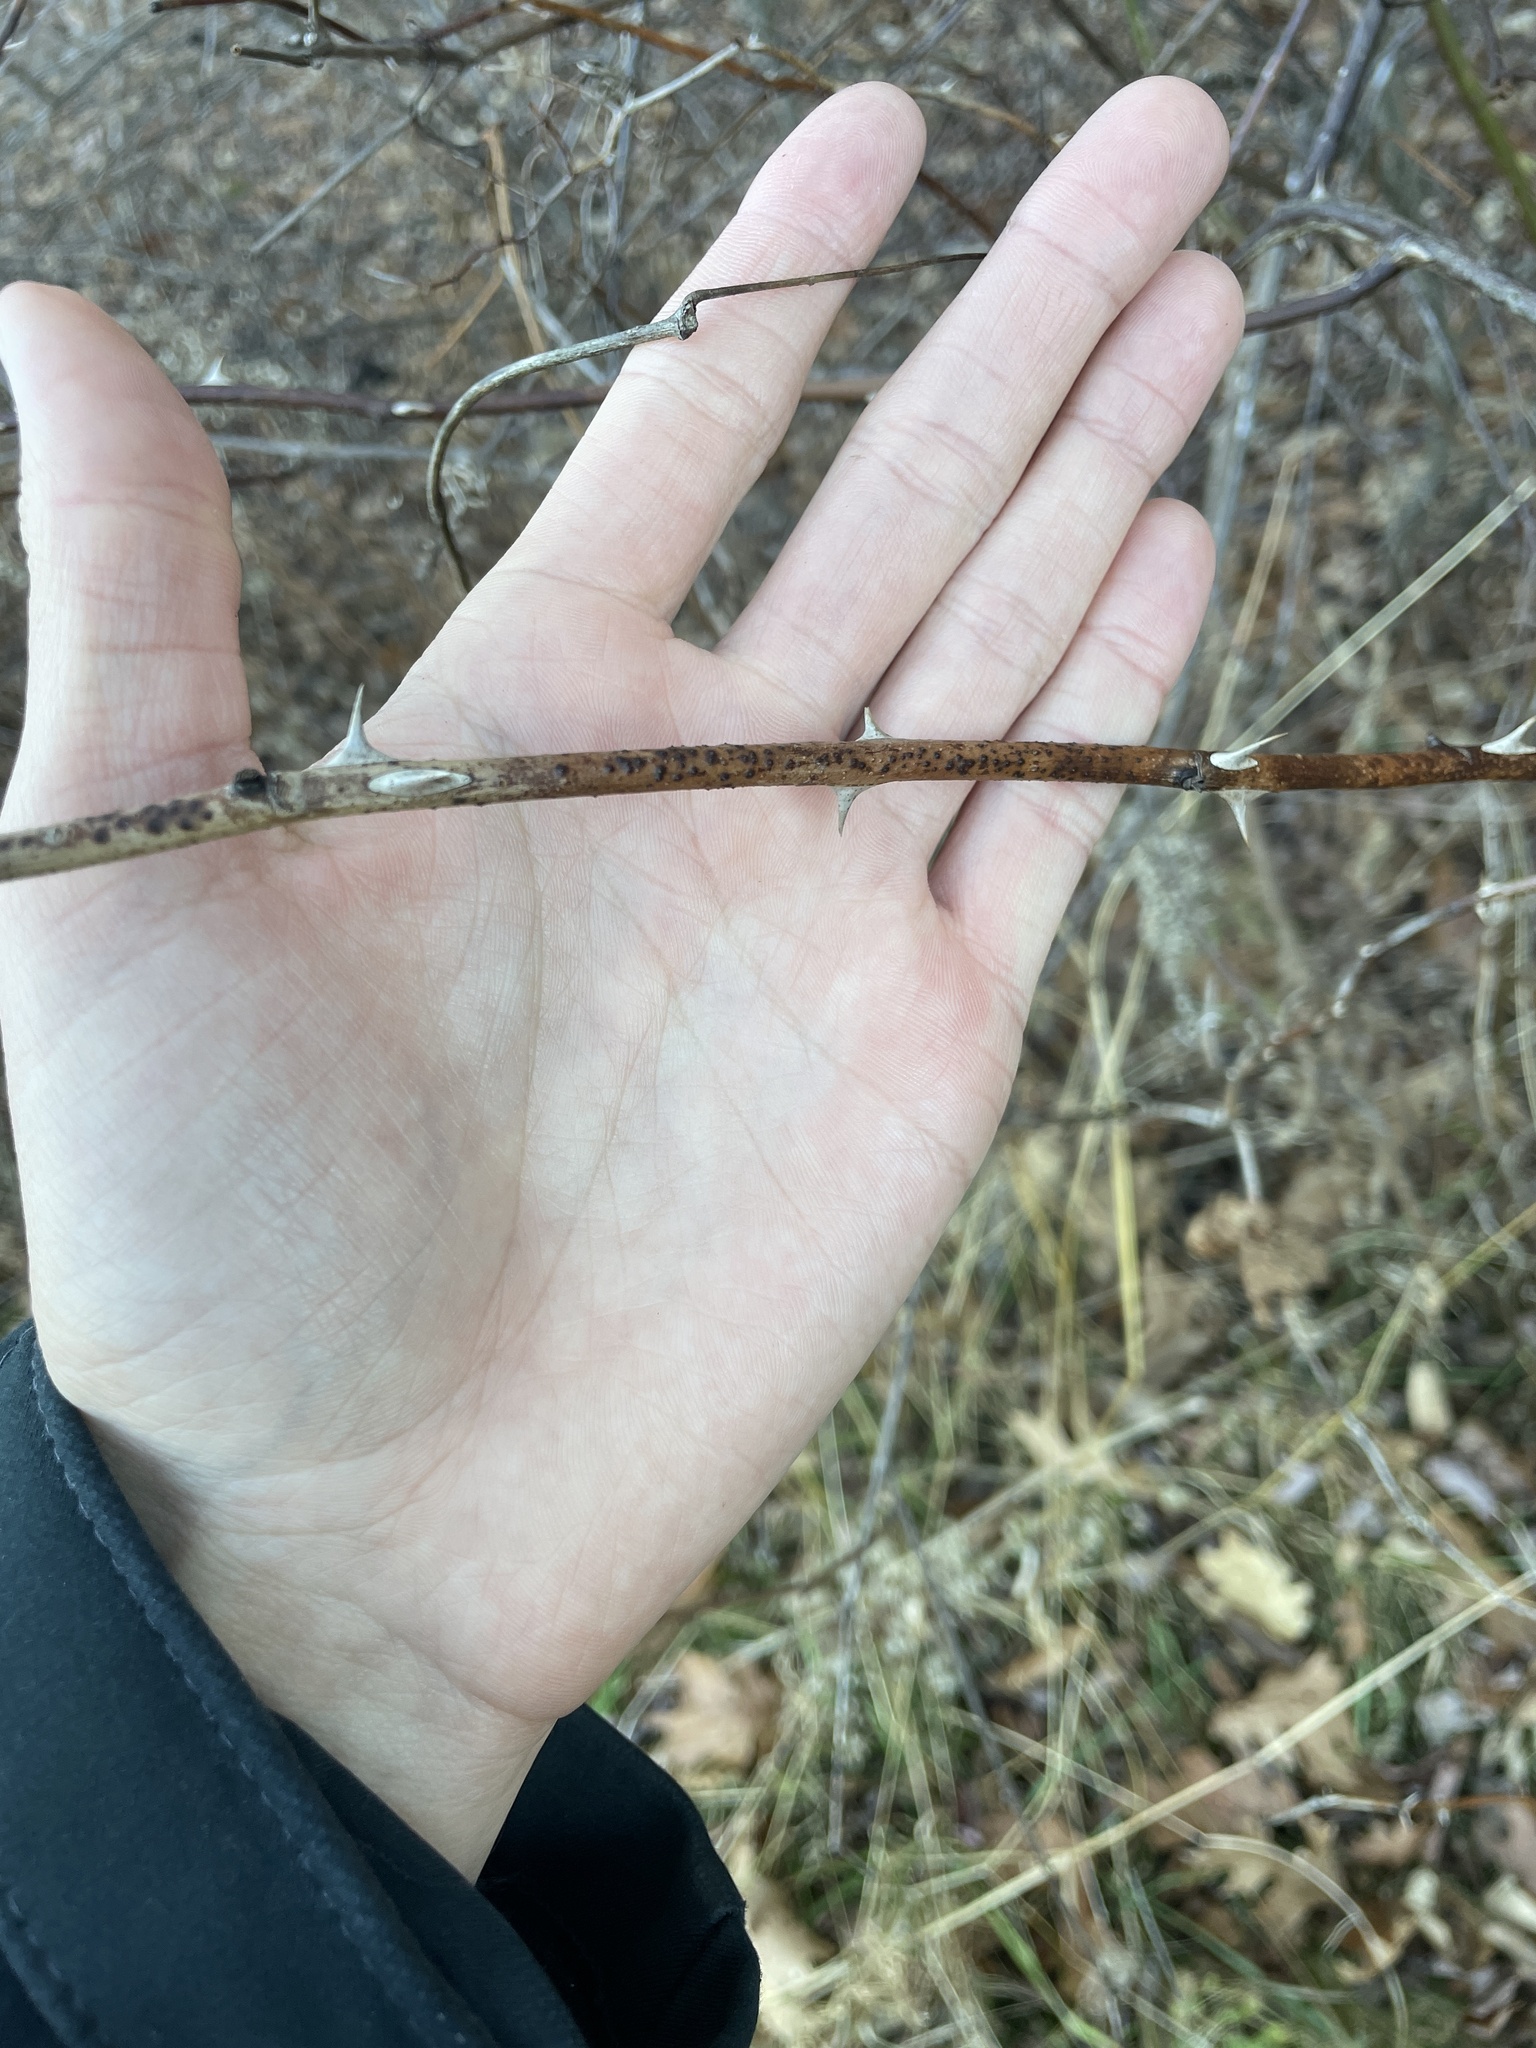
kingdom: Plantae
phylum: Tracheophyta
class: Magnoliopsida
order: Rosales
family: Rosaceae
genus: Rosa
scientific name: Rosa multiflora
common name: Multiflora rose
